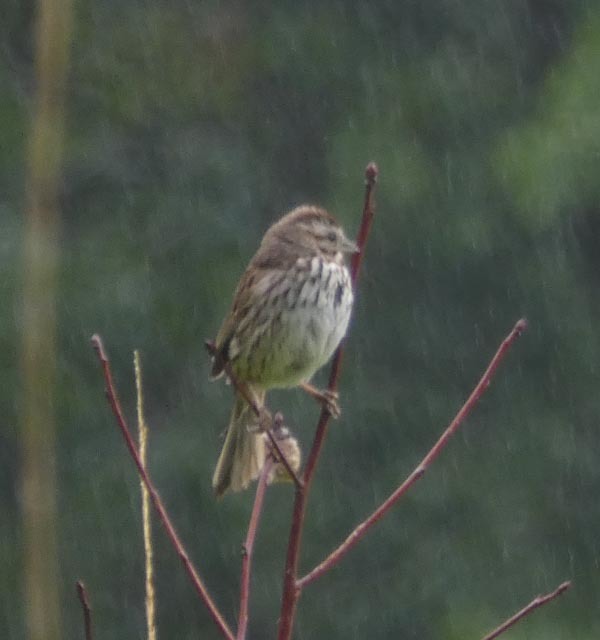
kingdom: Animalia
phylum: Chordata
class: Aves
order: Passeriformes
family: Passerellidae
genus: Melospiza
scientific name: Melospiza melodia
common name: Song sparrow
